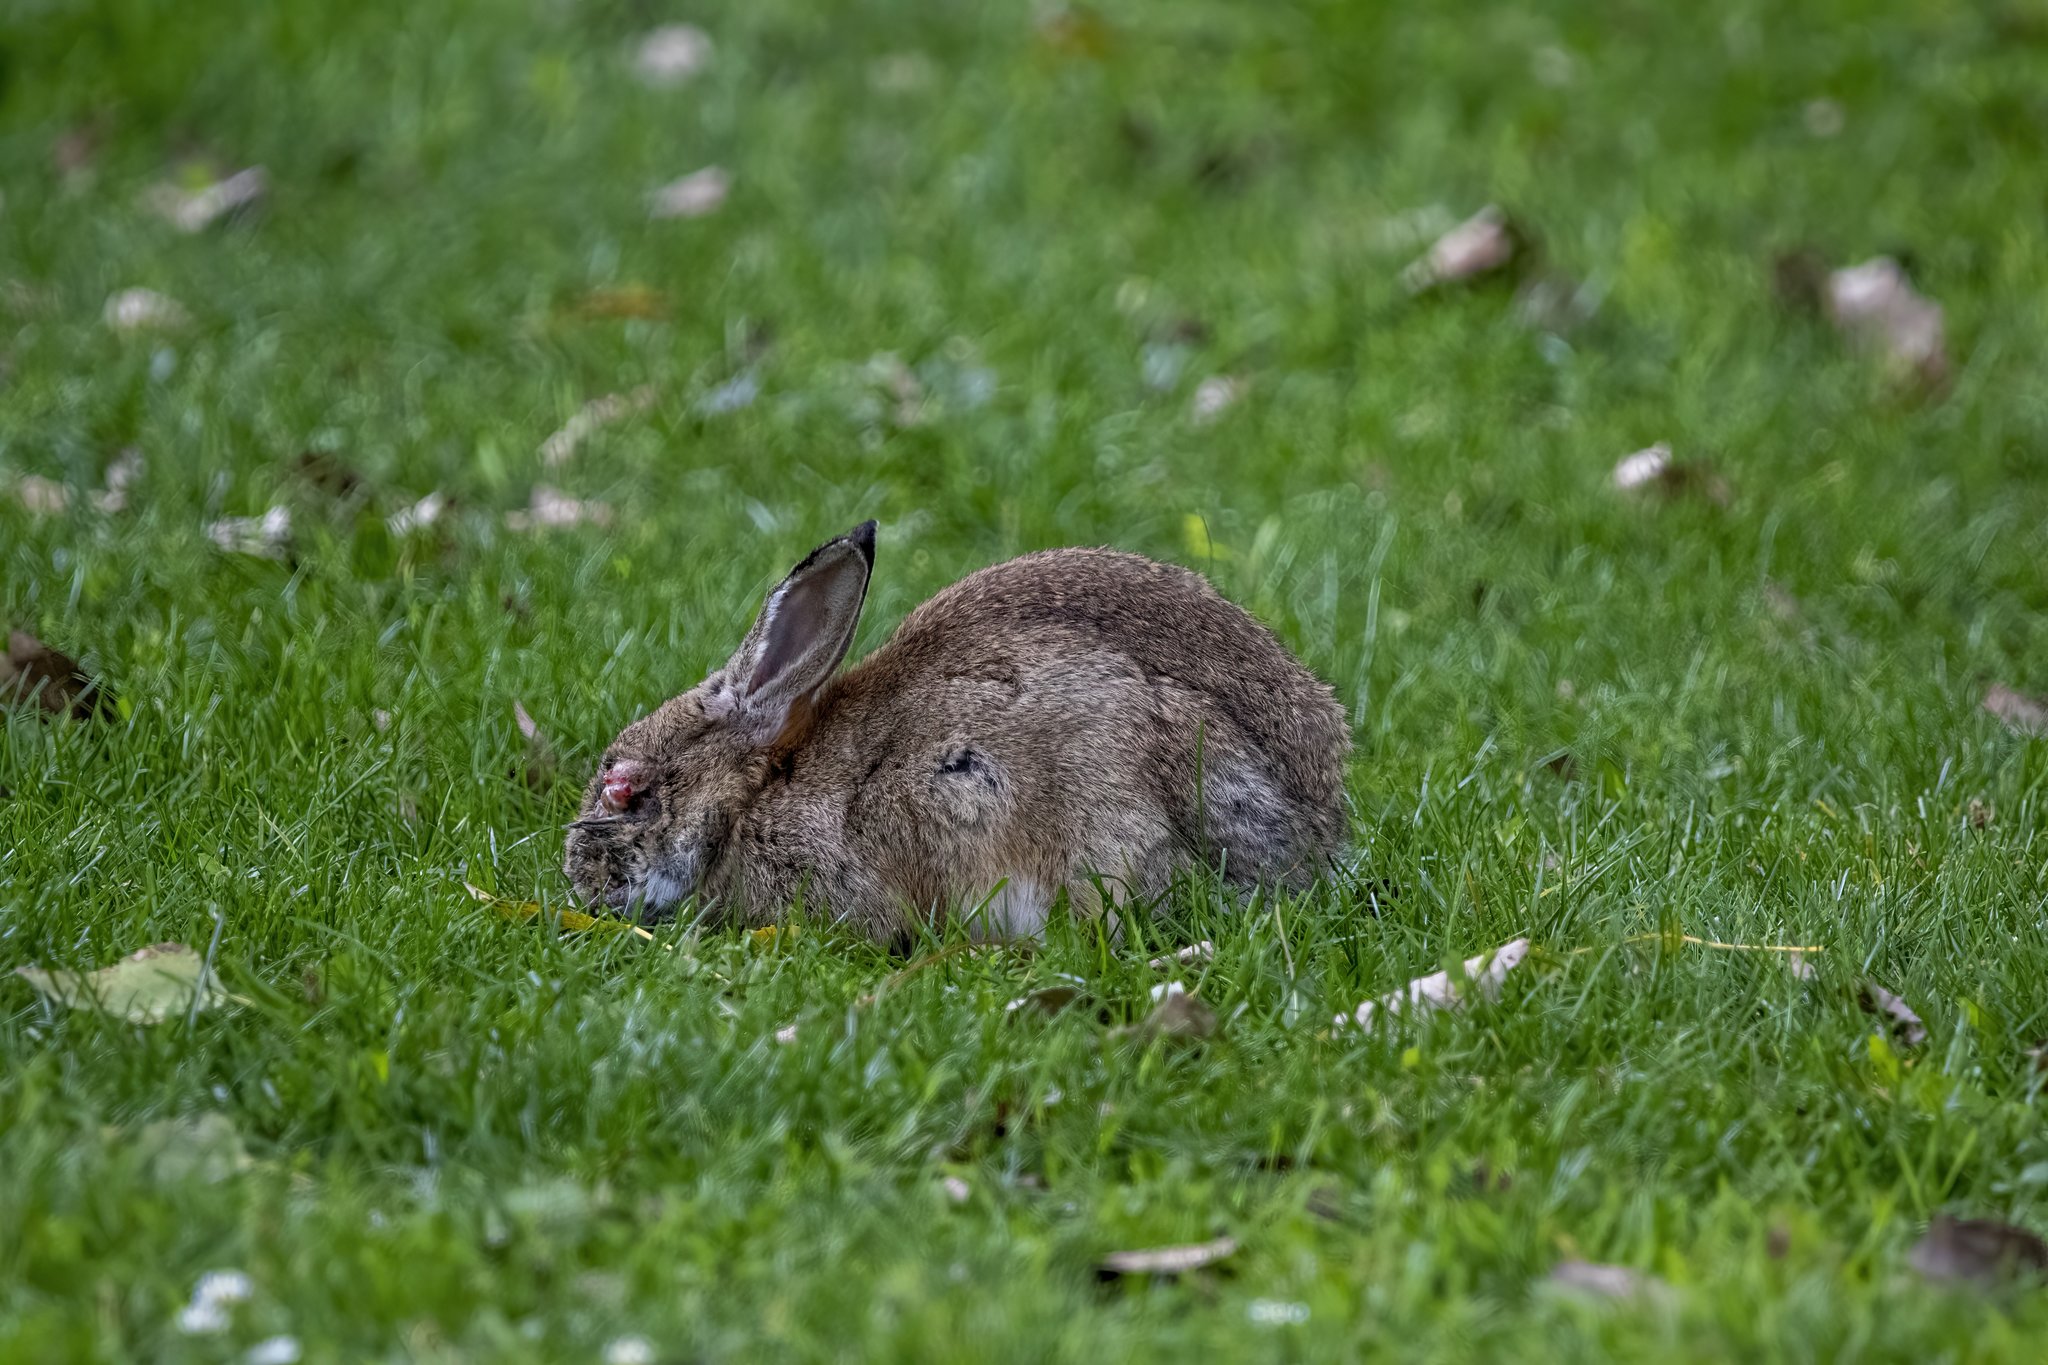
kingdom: Viruses
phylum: Nucleocytoviricota
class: Pokkesviricetes
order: Chitovirales
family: Poxviridae
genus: Leporipoxvirus
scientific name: Leporipoxvirus Myxoma virus
